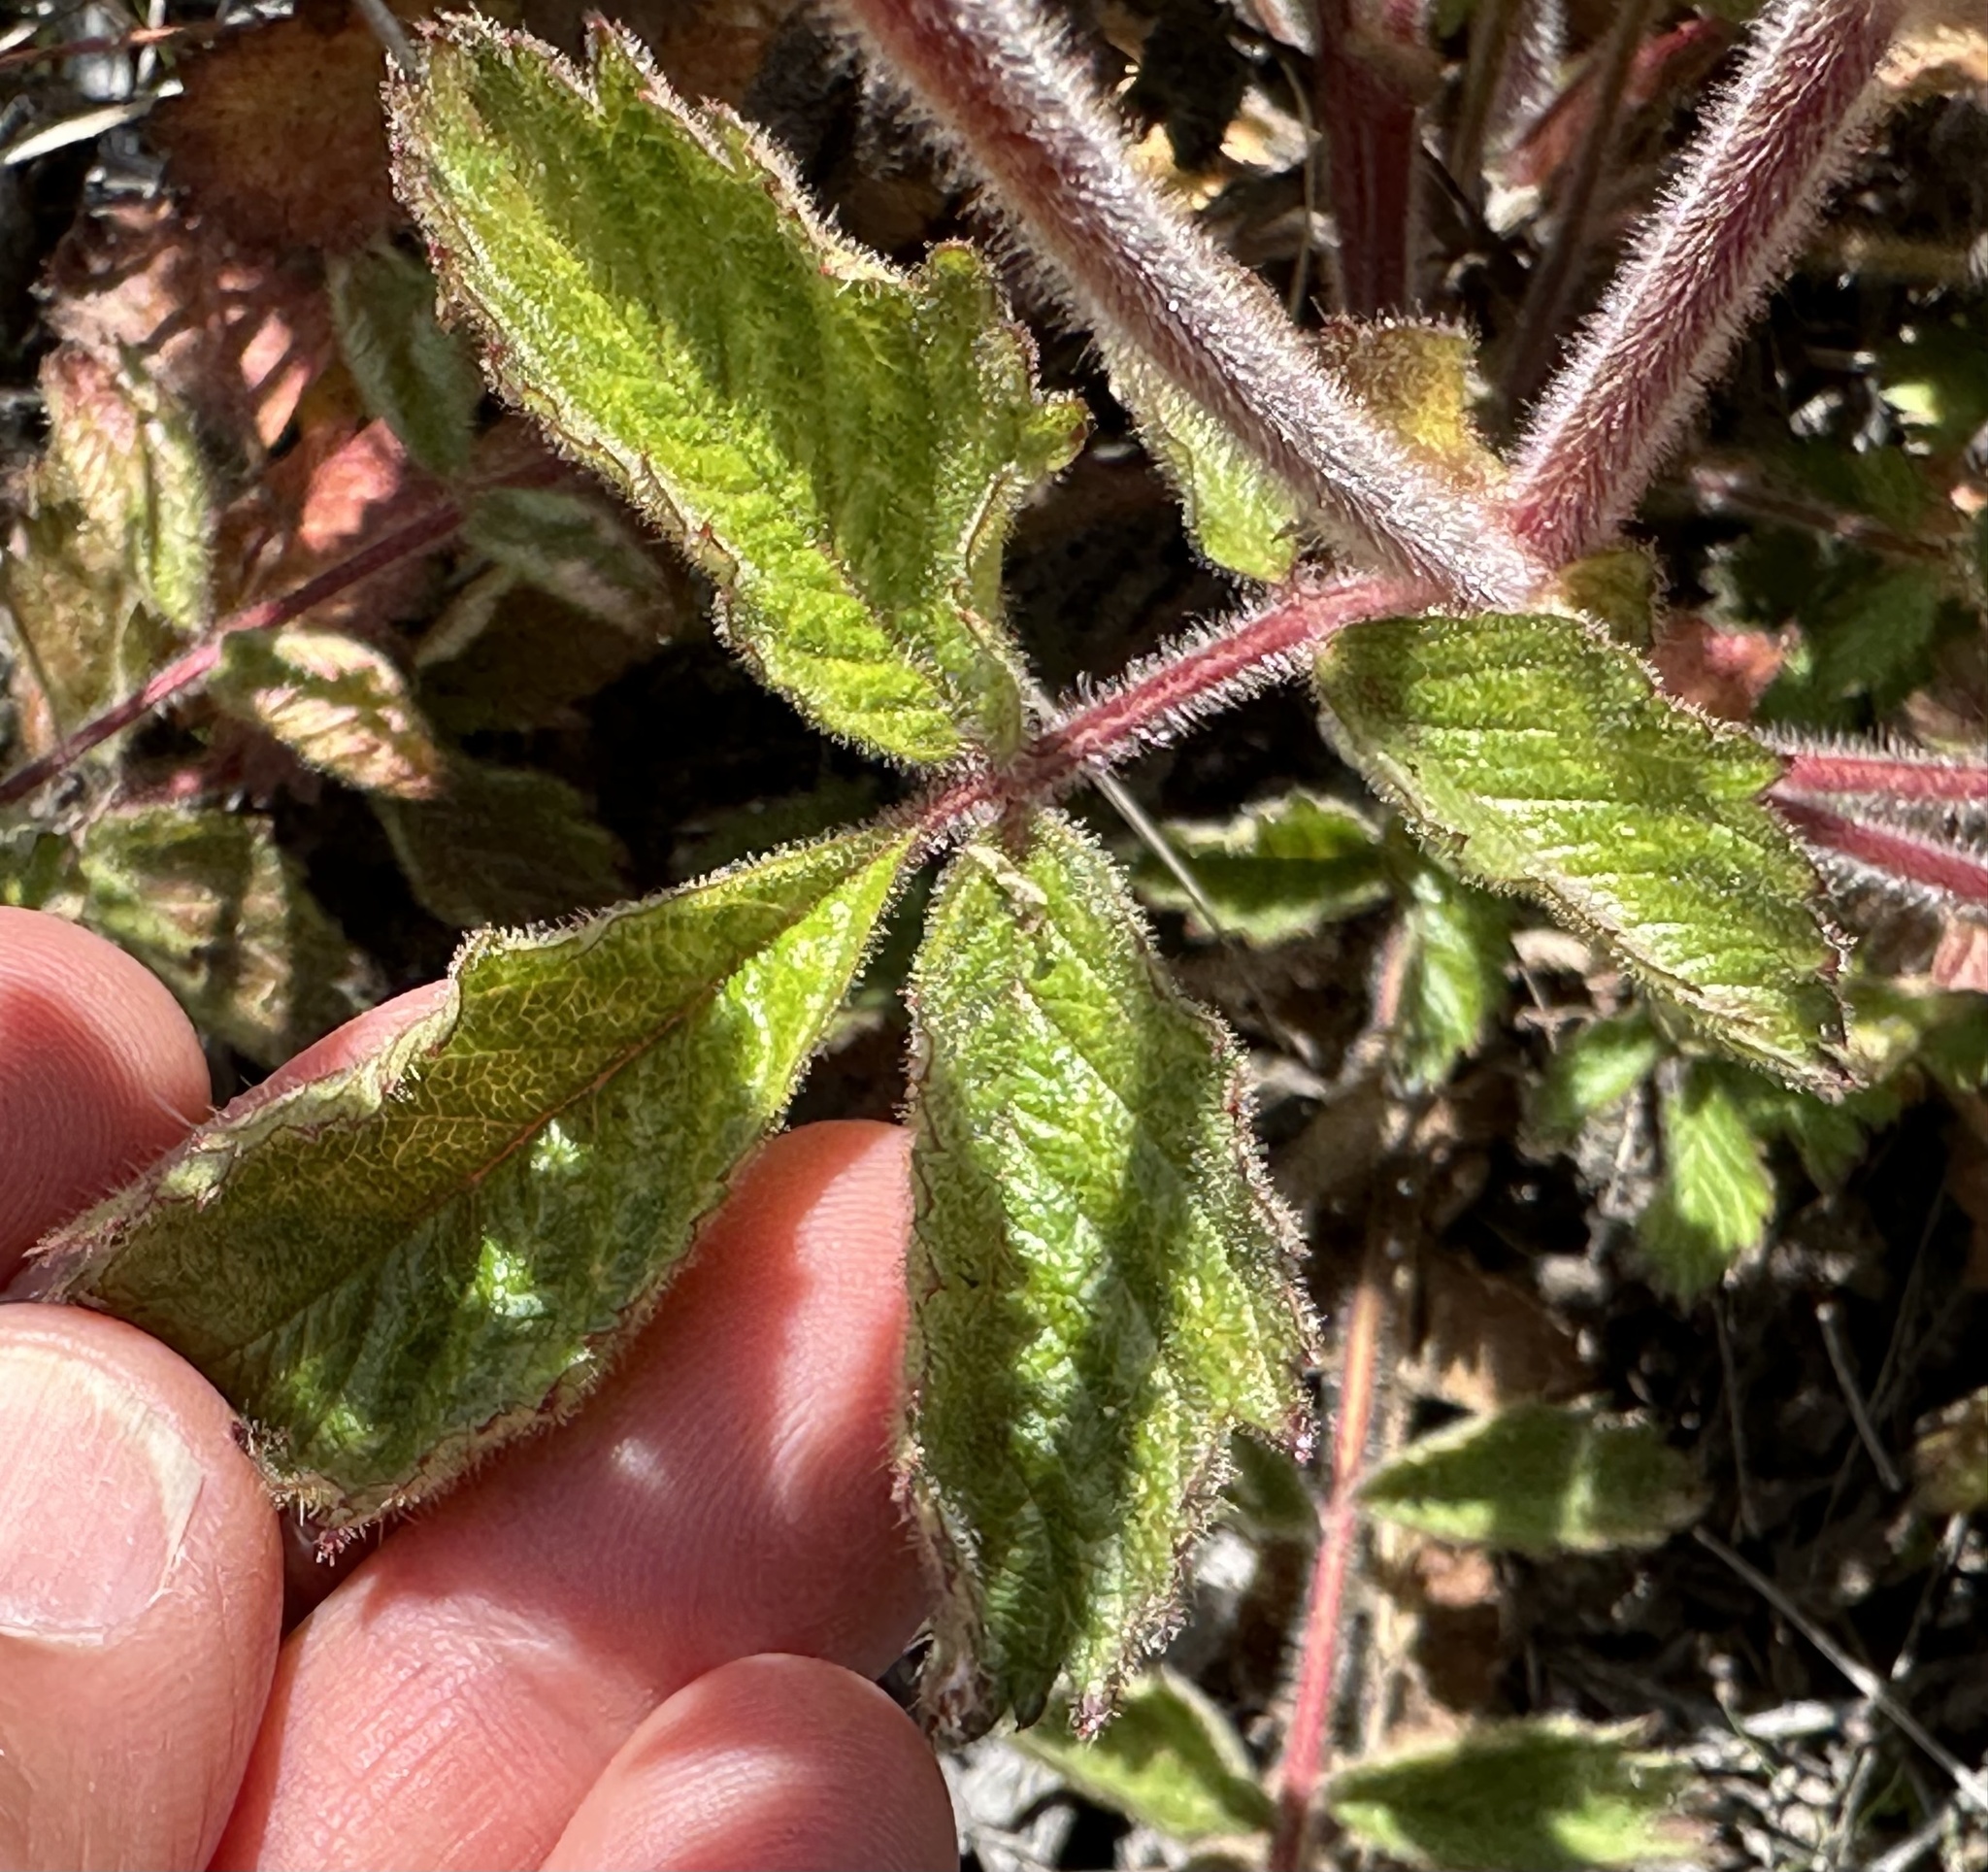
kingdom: Plantae
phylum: Tracheophyta
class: Magnoliopsida
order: Rosales
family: Rosaceae
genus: Drymocallis
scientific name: Drymocallis glandulosa
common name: Sticky cinquefoil
